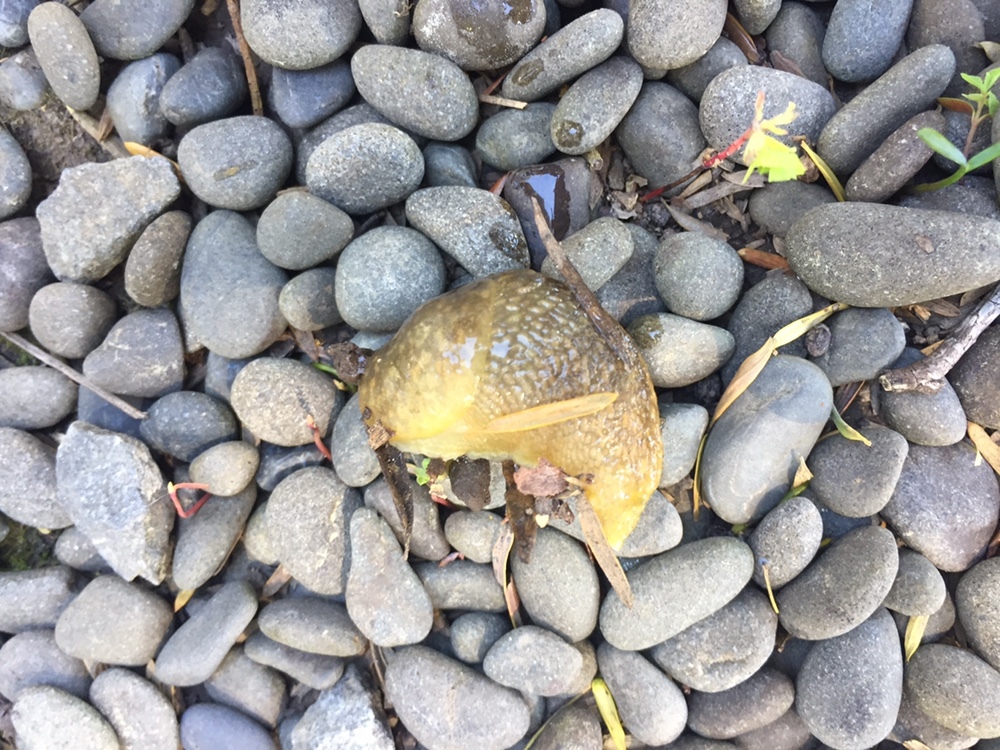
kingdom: Animalia
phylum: Mollusca
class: Gastropoda
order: Stylommatophora
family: Limacidae
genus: Limacus
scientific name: Limacus flavus
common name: Yellow gardenslug
